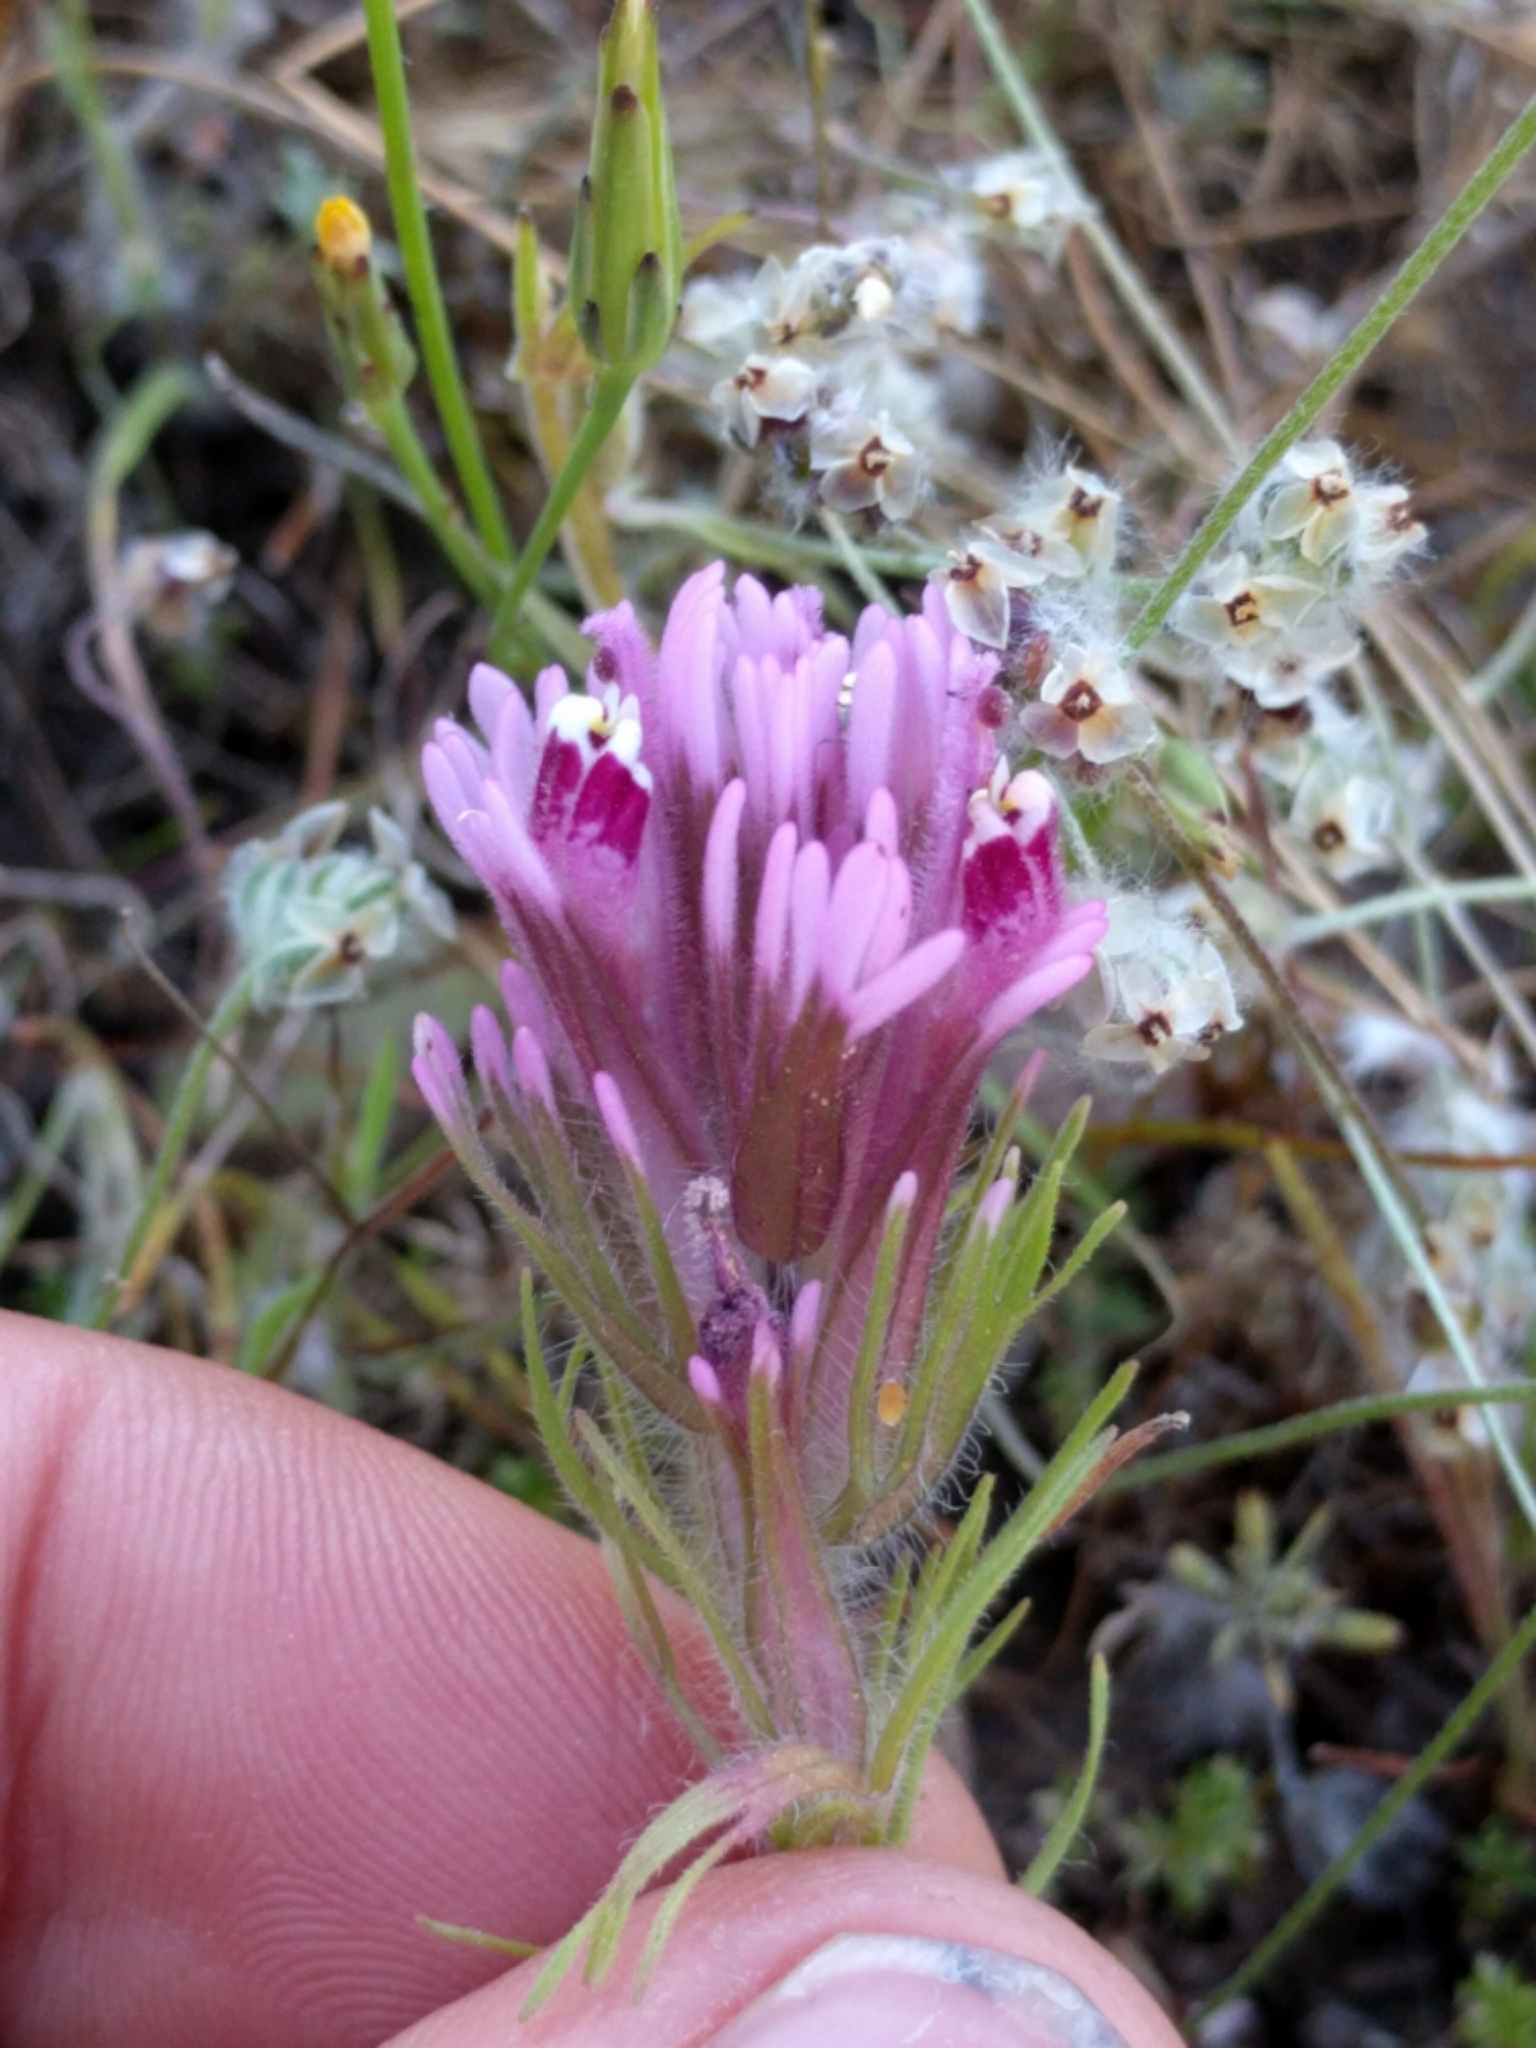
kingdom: Plantae
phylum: Tracheophyta
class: Magnoliopsida
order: Lamiales
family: Orobanchaceae
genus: Castilleja
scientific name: Castilleja exserta
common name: Purple owl-clover
